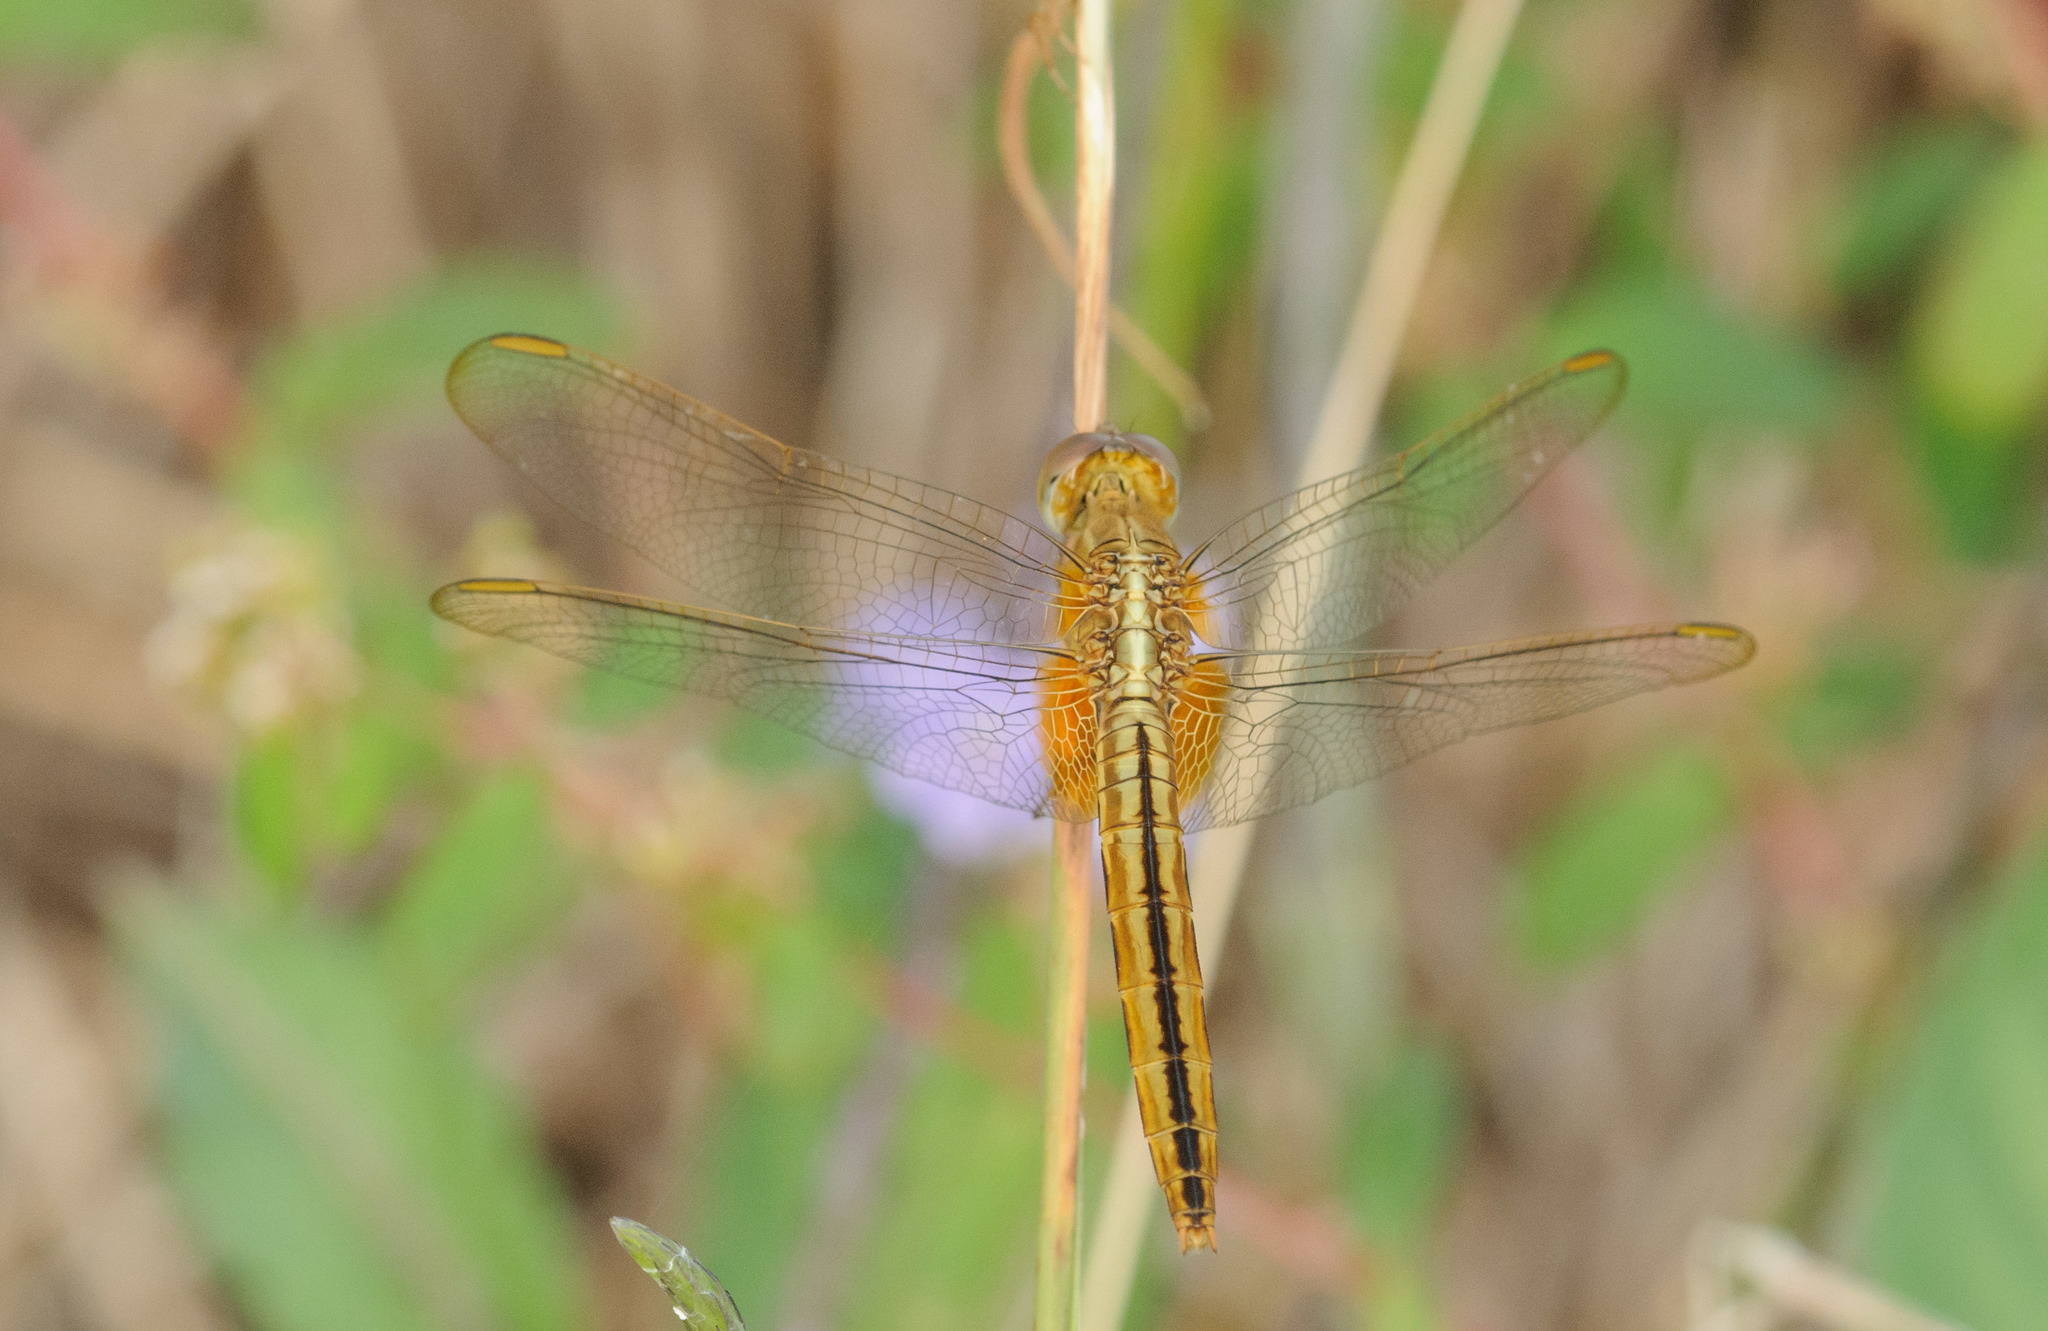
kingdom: Animalia
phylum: Arthropoda
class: Insecta
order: Odonata
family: Libellulidae
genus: Crocothemis
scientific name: Crocothemis servilia
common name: Scarlet skimmer
